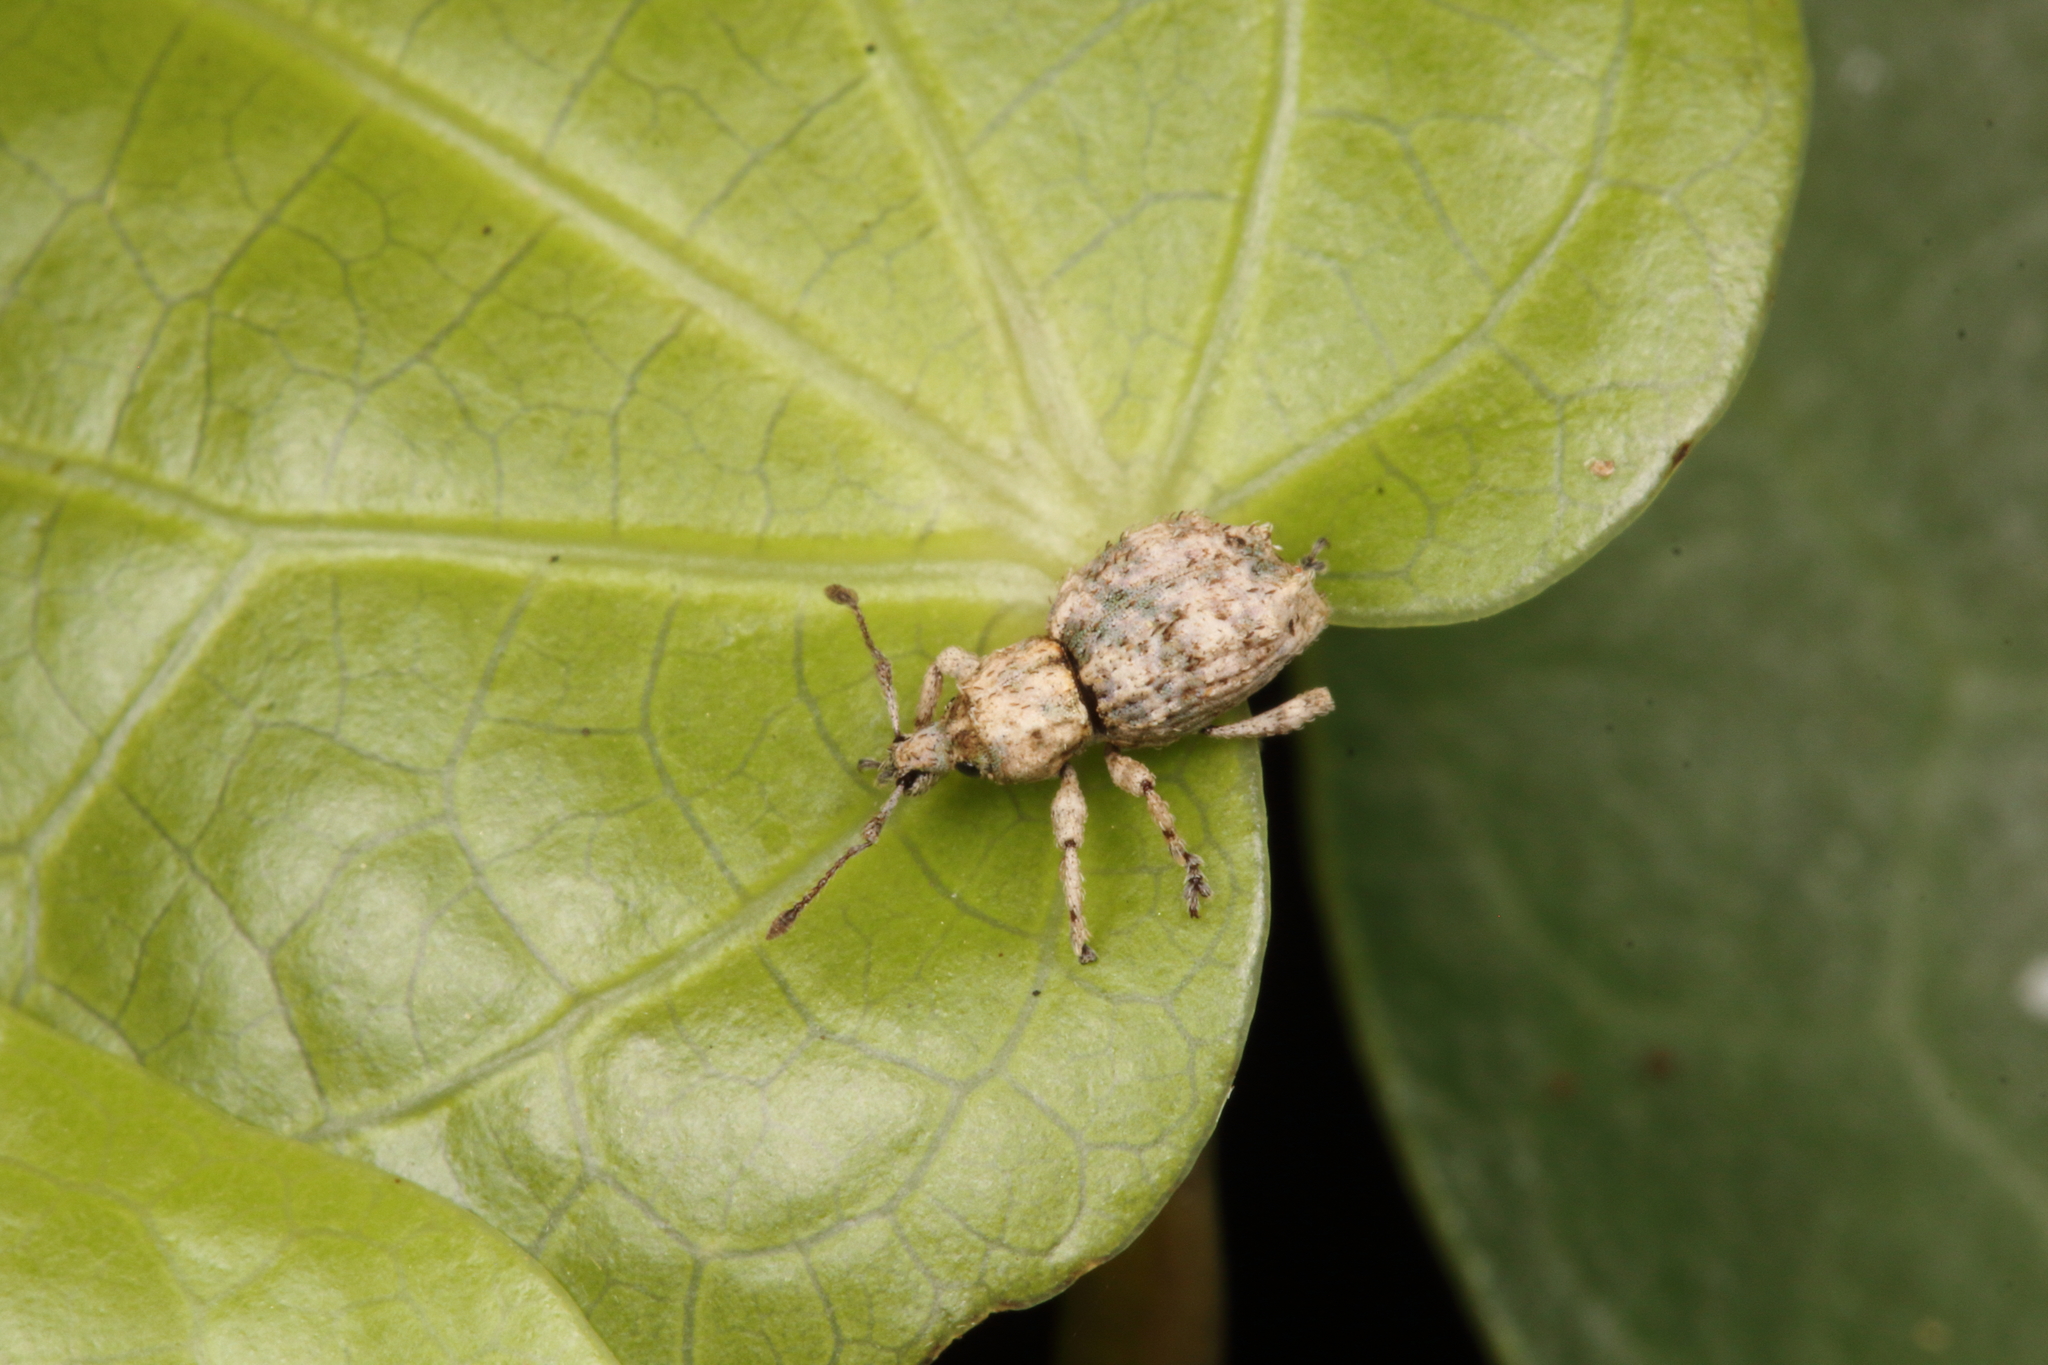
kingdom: Animalia
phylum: Arthropoda
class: Insecta
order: Coleoptera
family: Curculionidae
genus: Brachyolus
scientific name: Brachyolus punctatus
